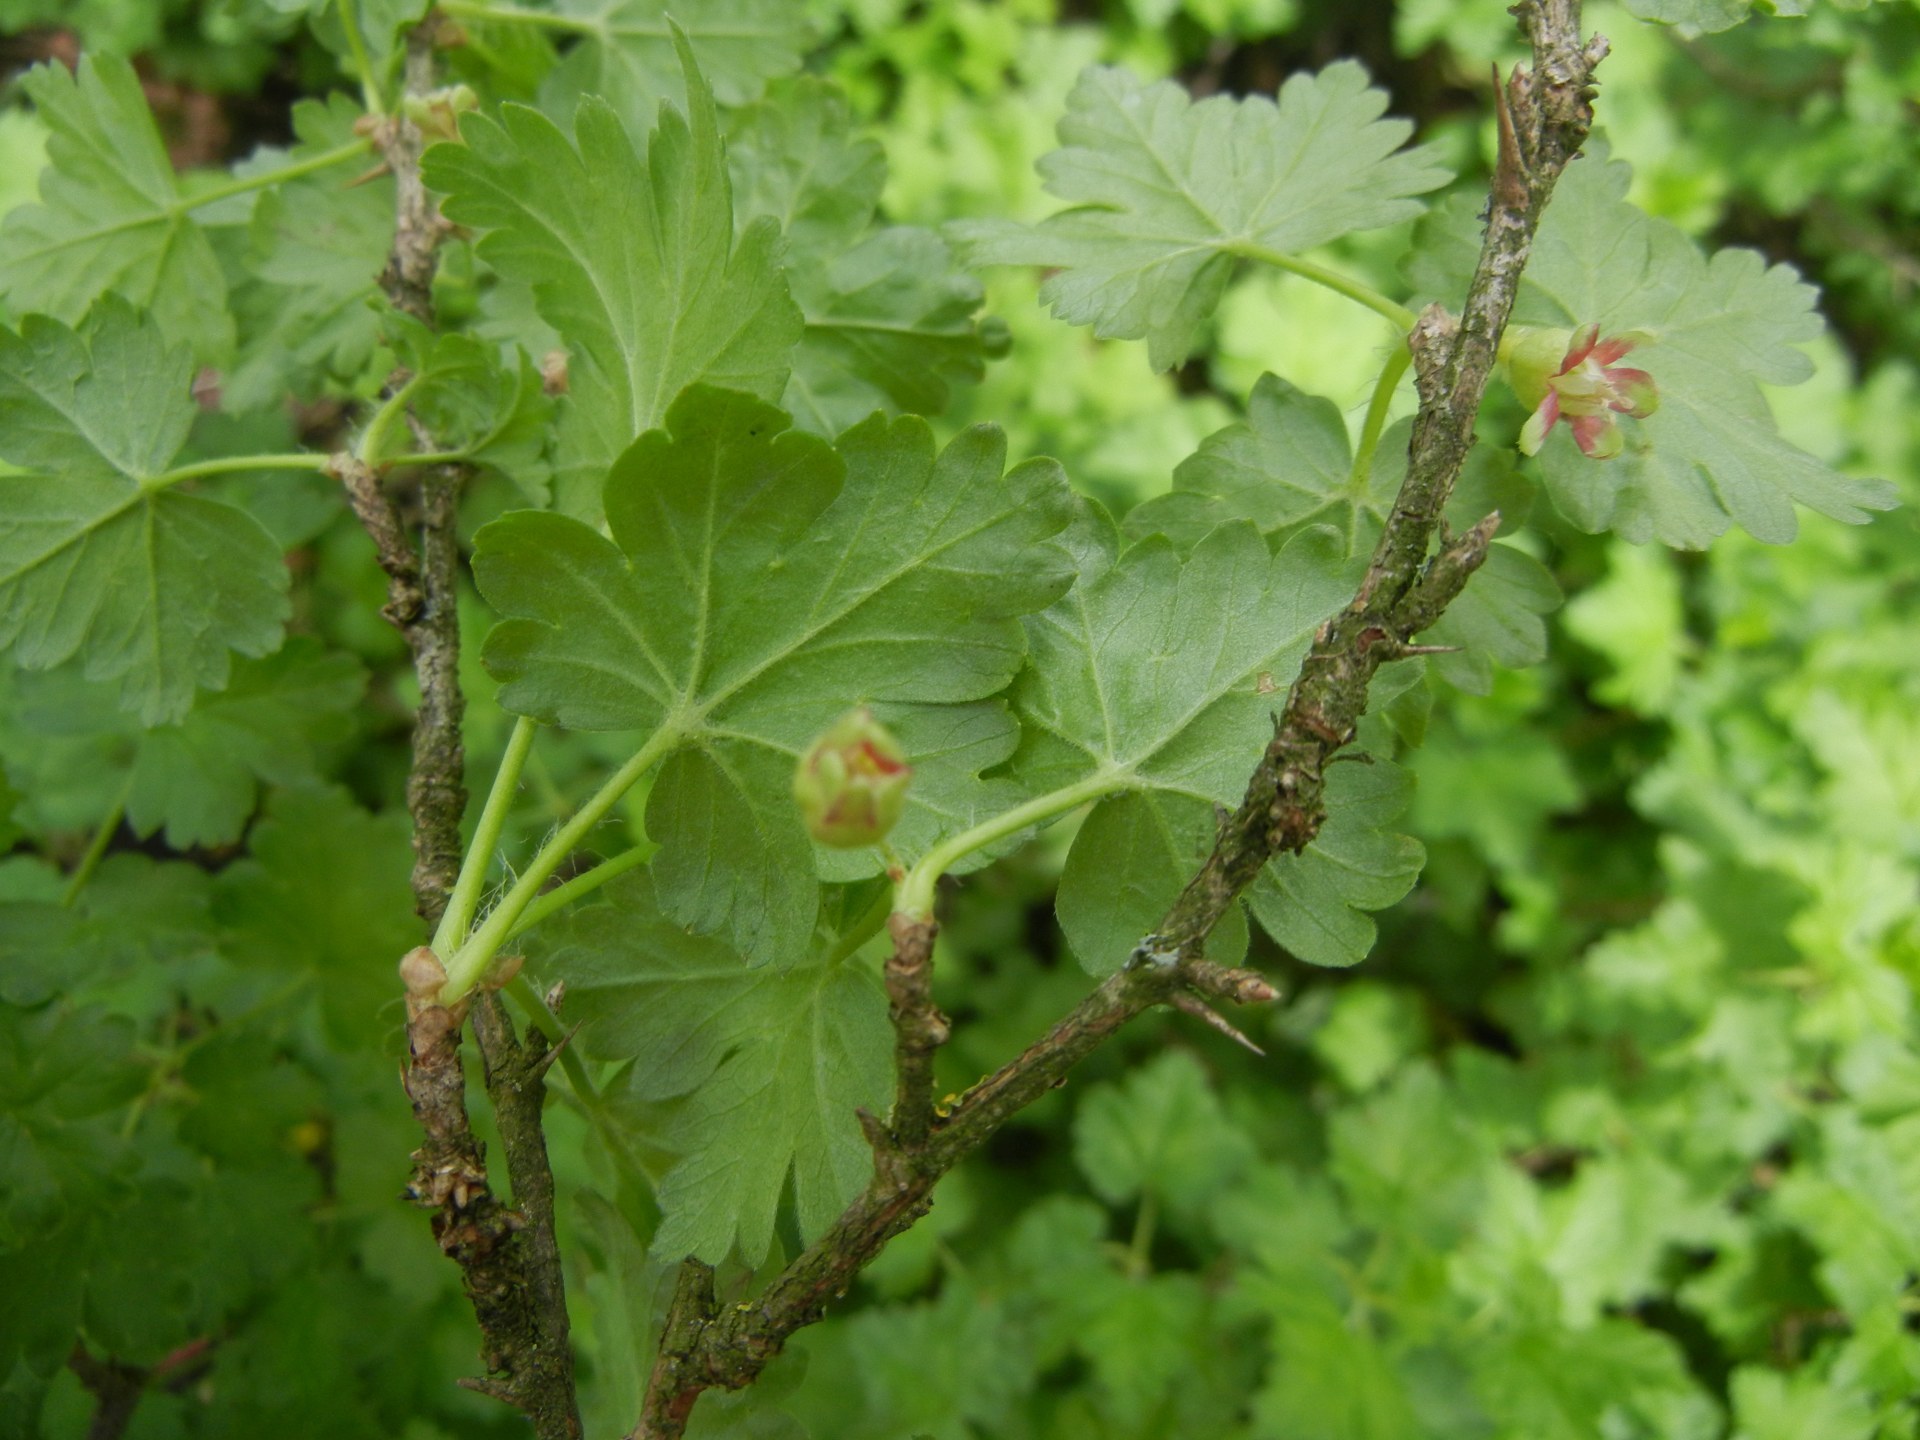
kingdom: Plantae
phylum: Tracheophyta
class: Magnoliopsida
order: Saxifragales
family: Grossulariaceae
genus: Ribes
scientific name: Ribes uva-crispa
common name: Gooseberry
